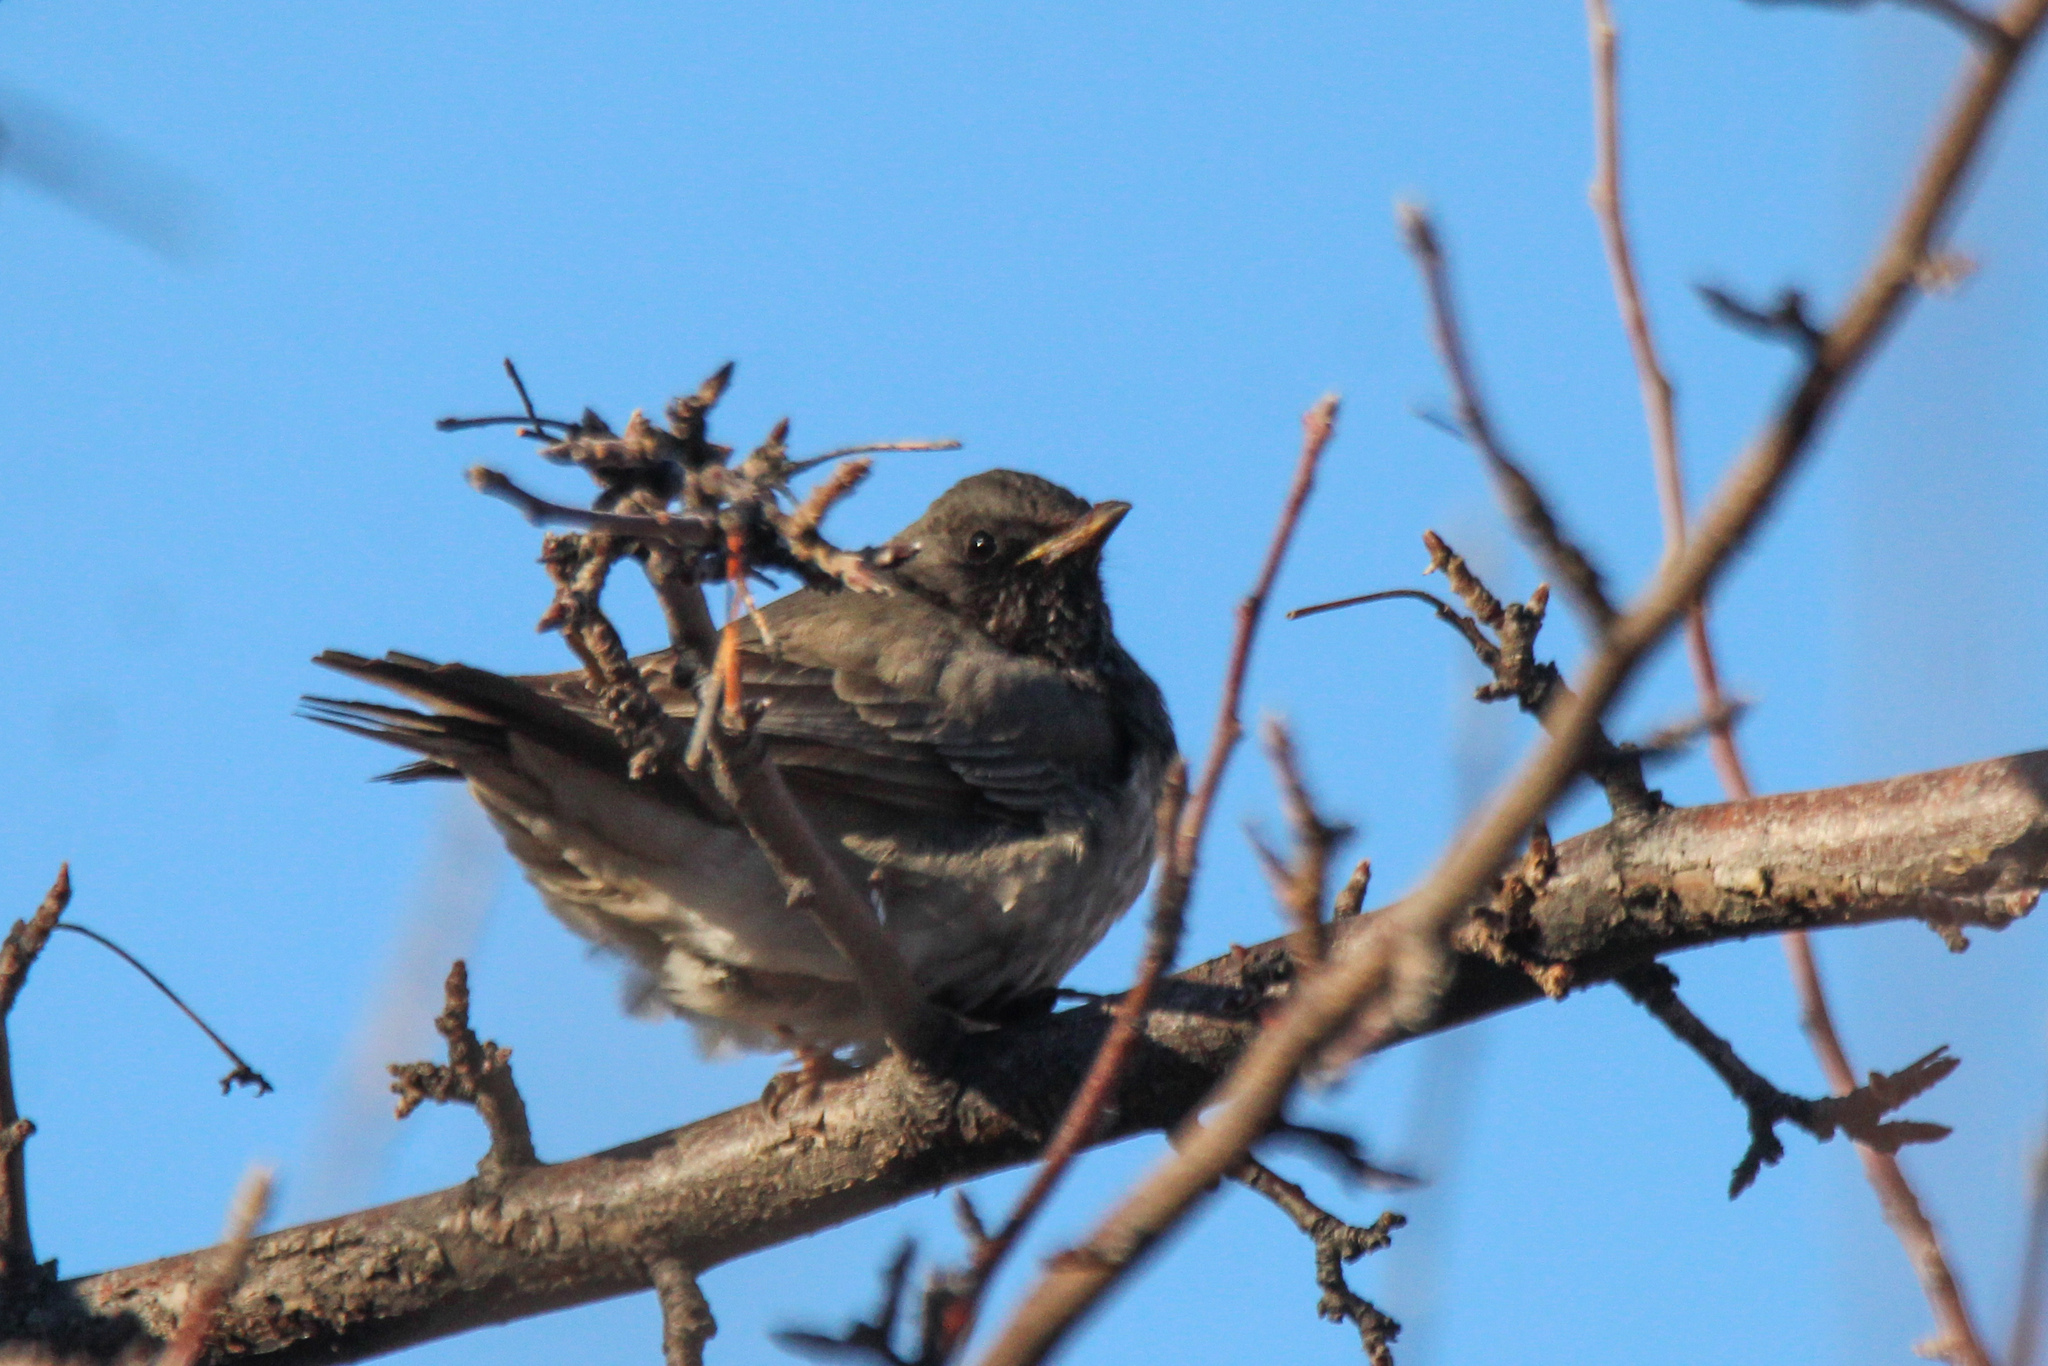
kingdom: Animalia
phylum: Chordata
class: Aves
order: Passeriformes
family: Turdidae
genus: Turdus
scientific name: Turdus atrogularis
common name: Black-throated thrush
